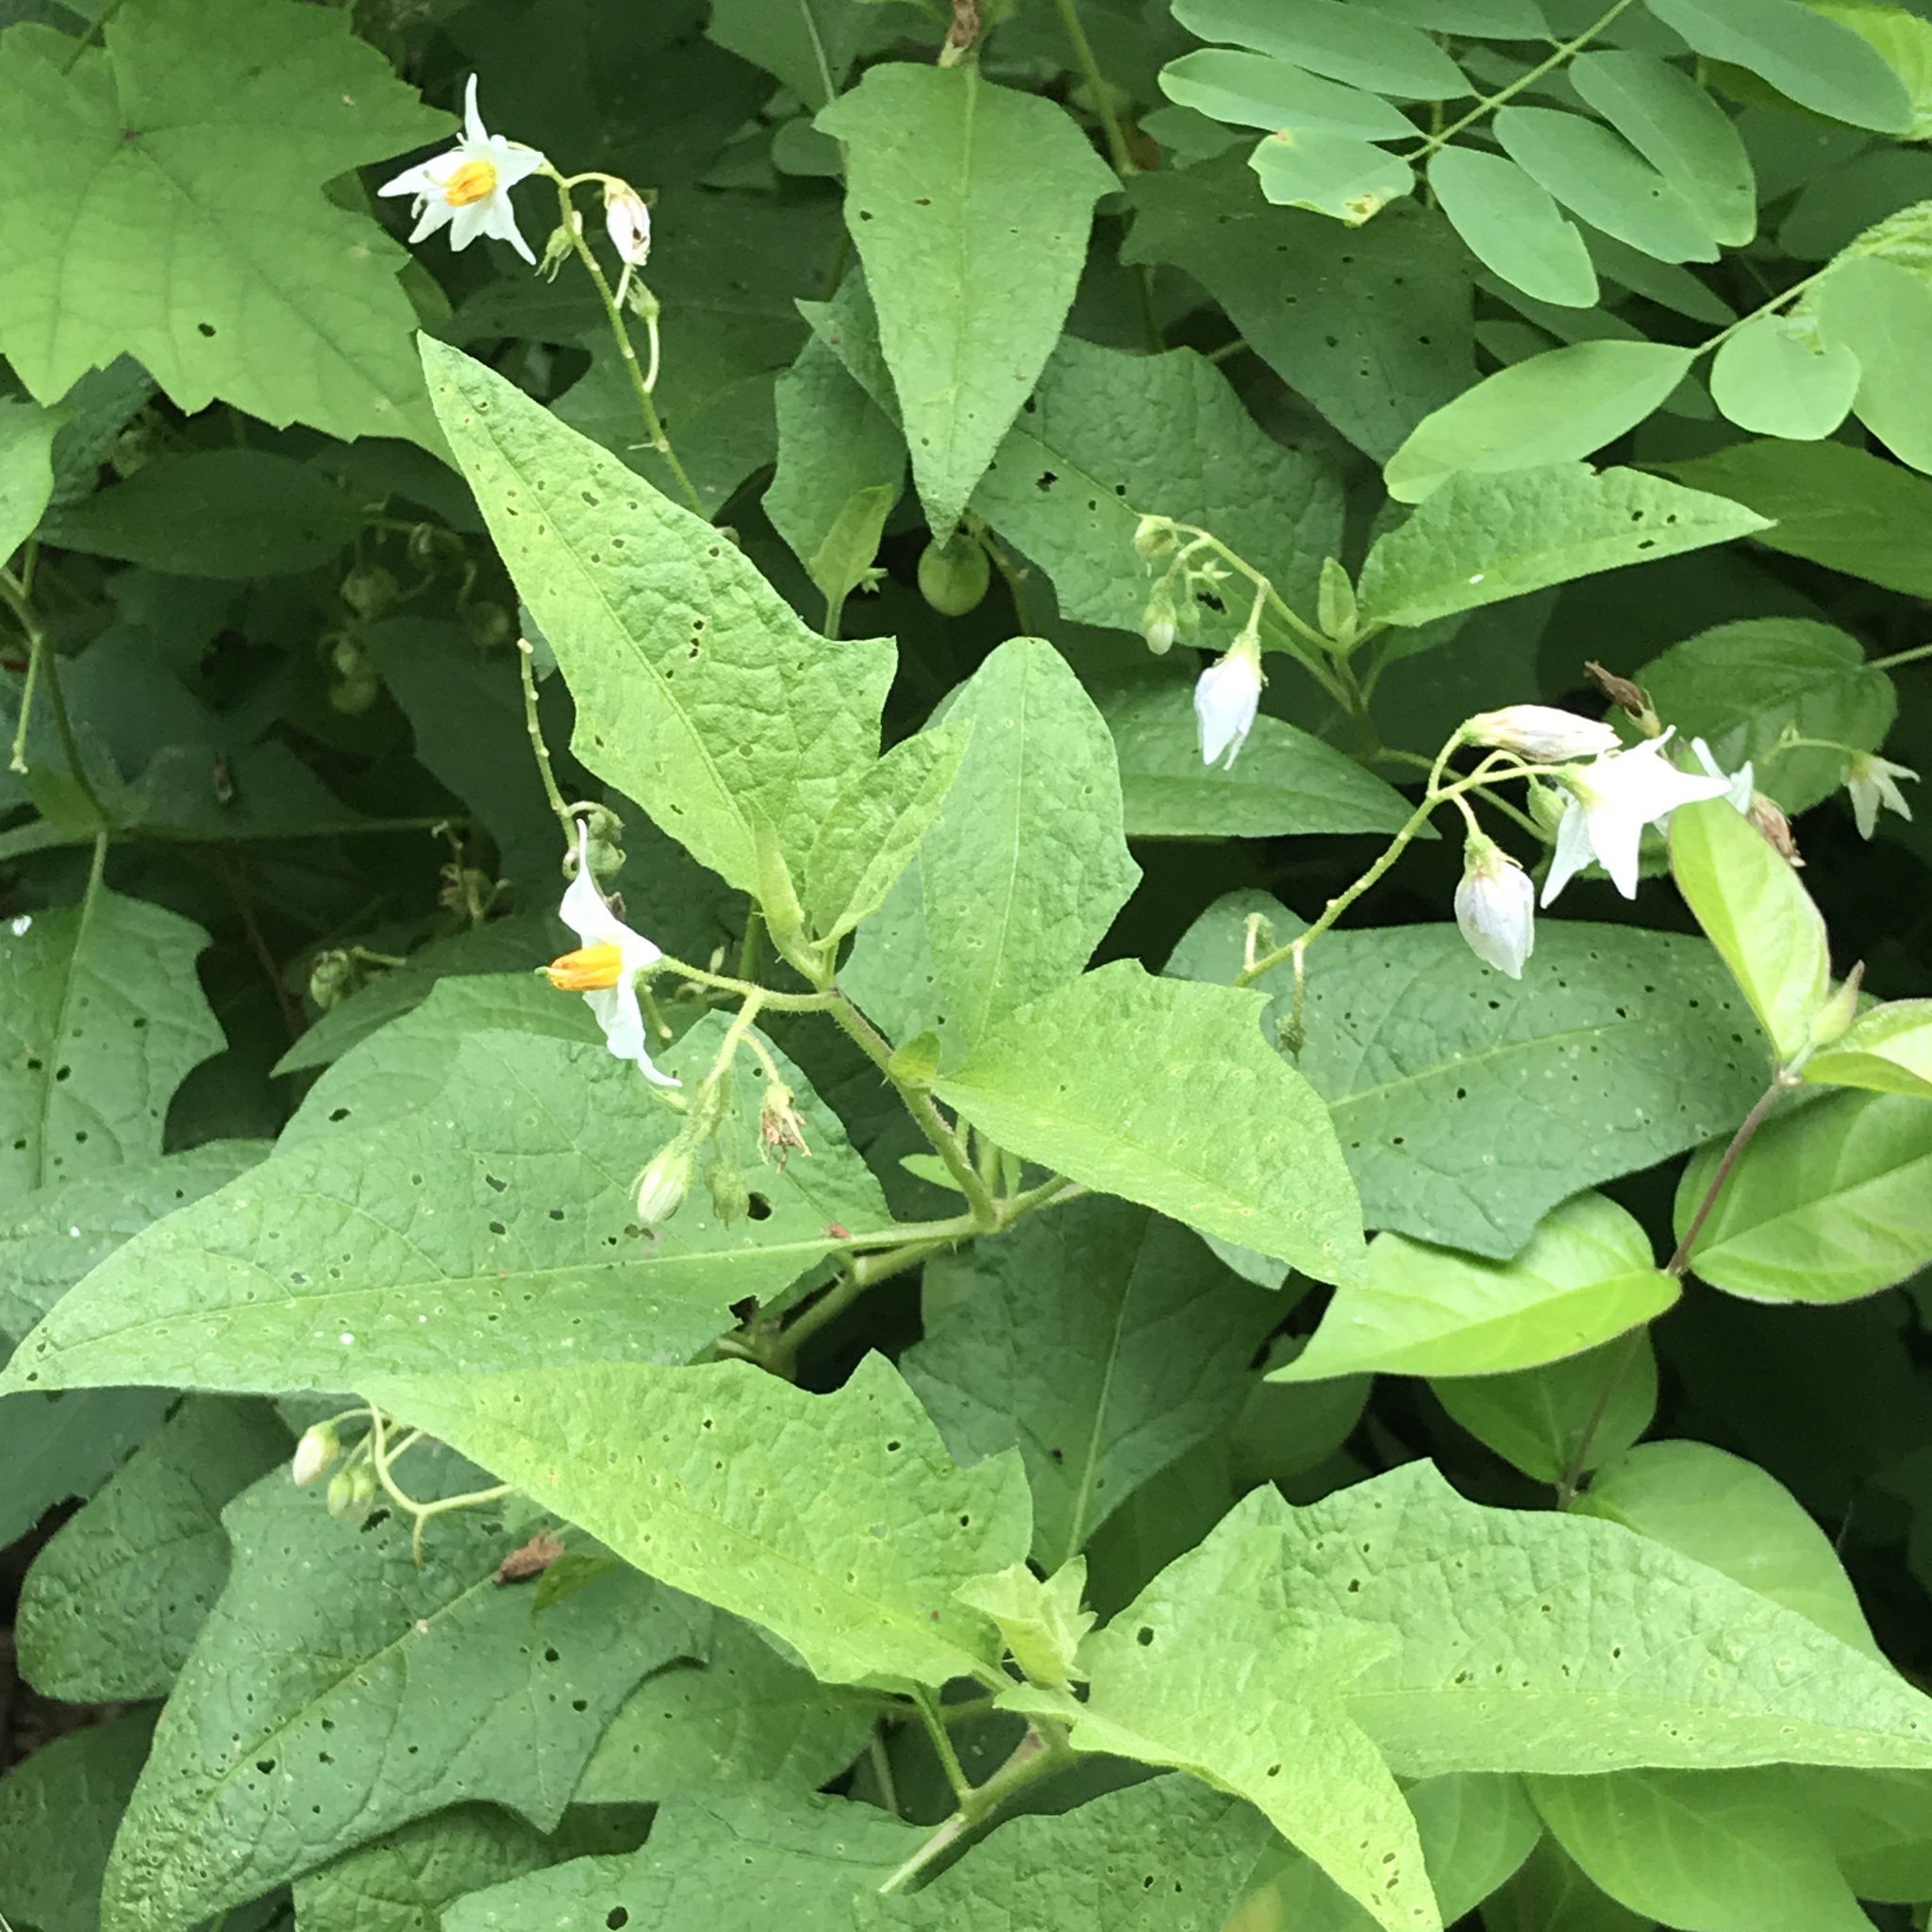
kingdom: Plantae
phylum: Tracheophyta
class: Magnoliopsida
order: Solanales
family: Solanaceae
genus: Solanum
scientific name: Solanum carolinense
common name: Horse-nettle
